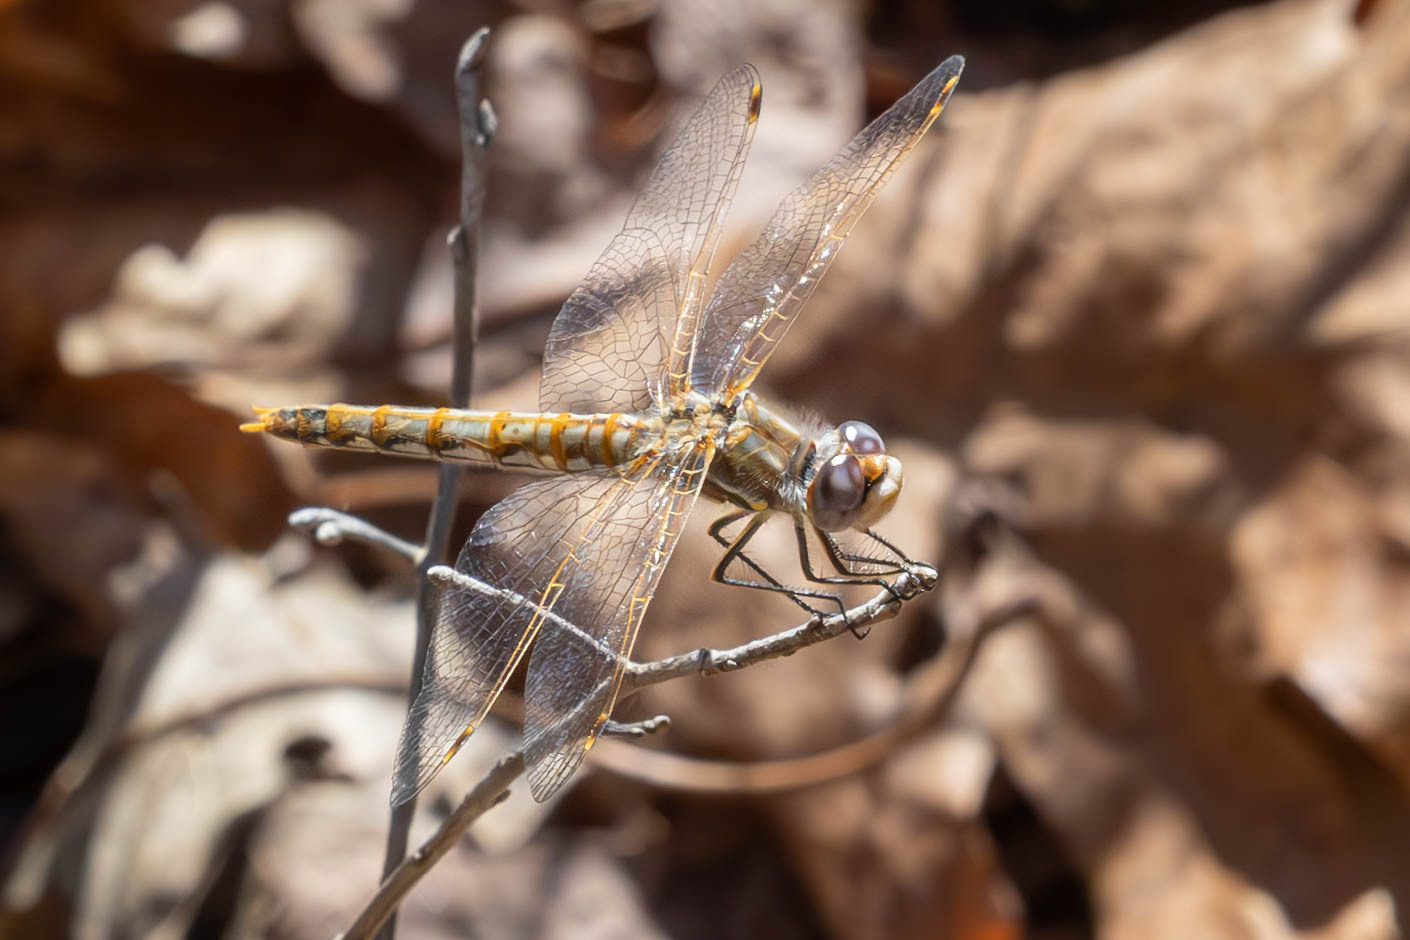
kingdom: Animalia
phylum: Arthropoda
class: Insecta
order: Odonata
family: Libellulidae
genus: Sympetrum
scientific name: Sympetrum corruptum
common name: Variegated meadowhawk
